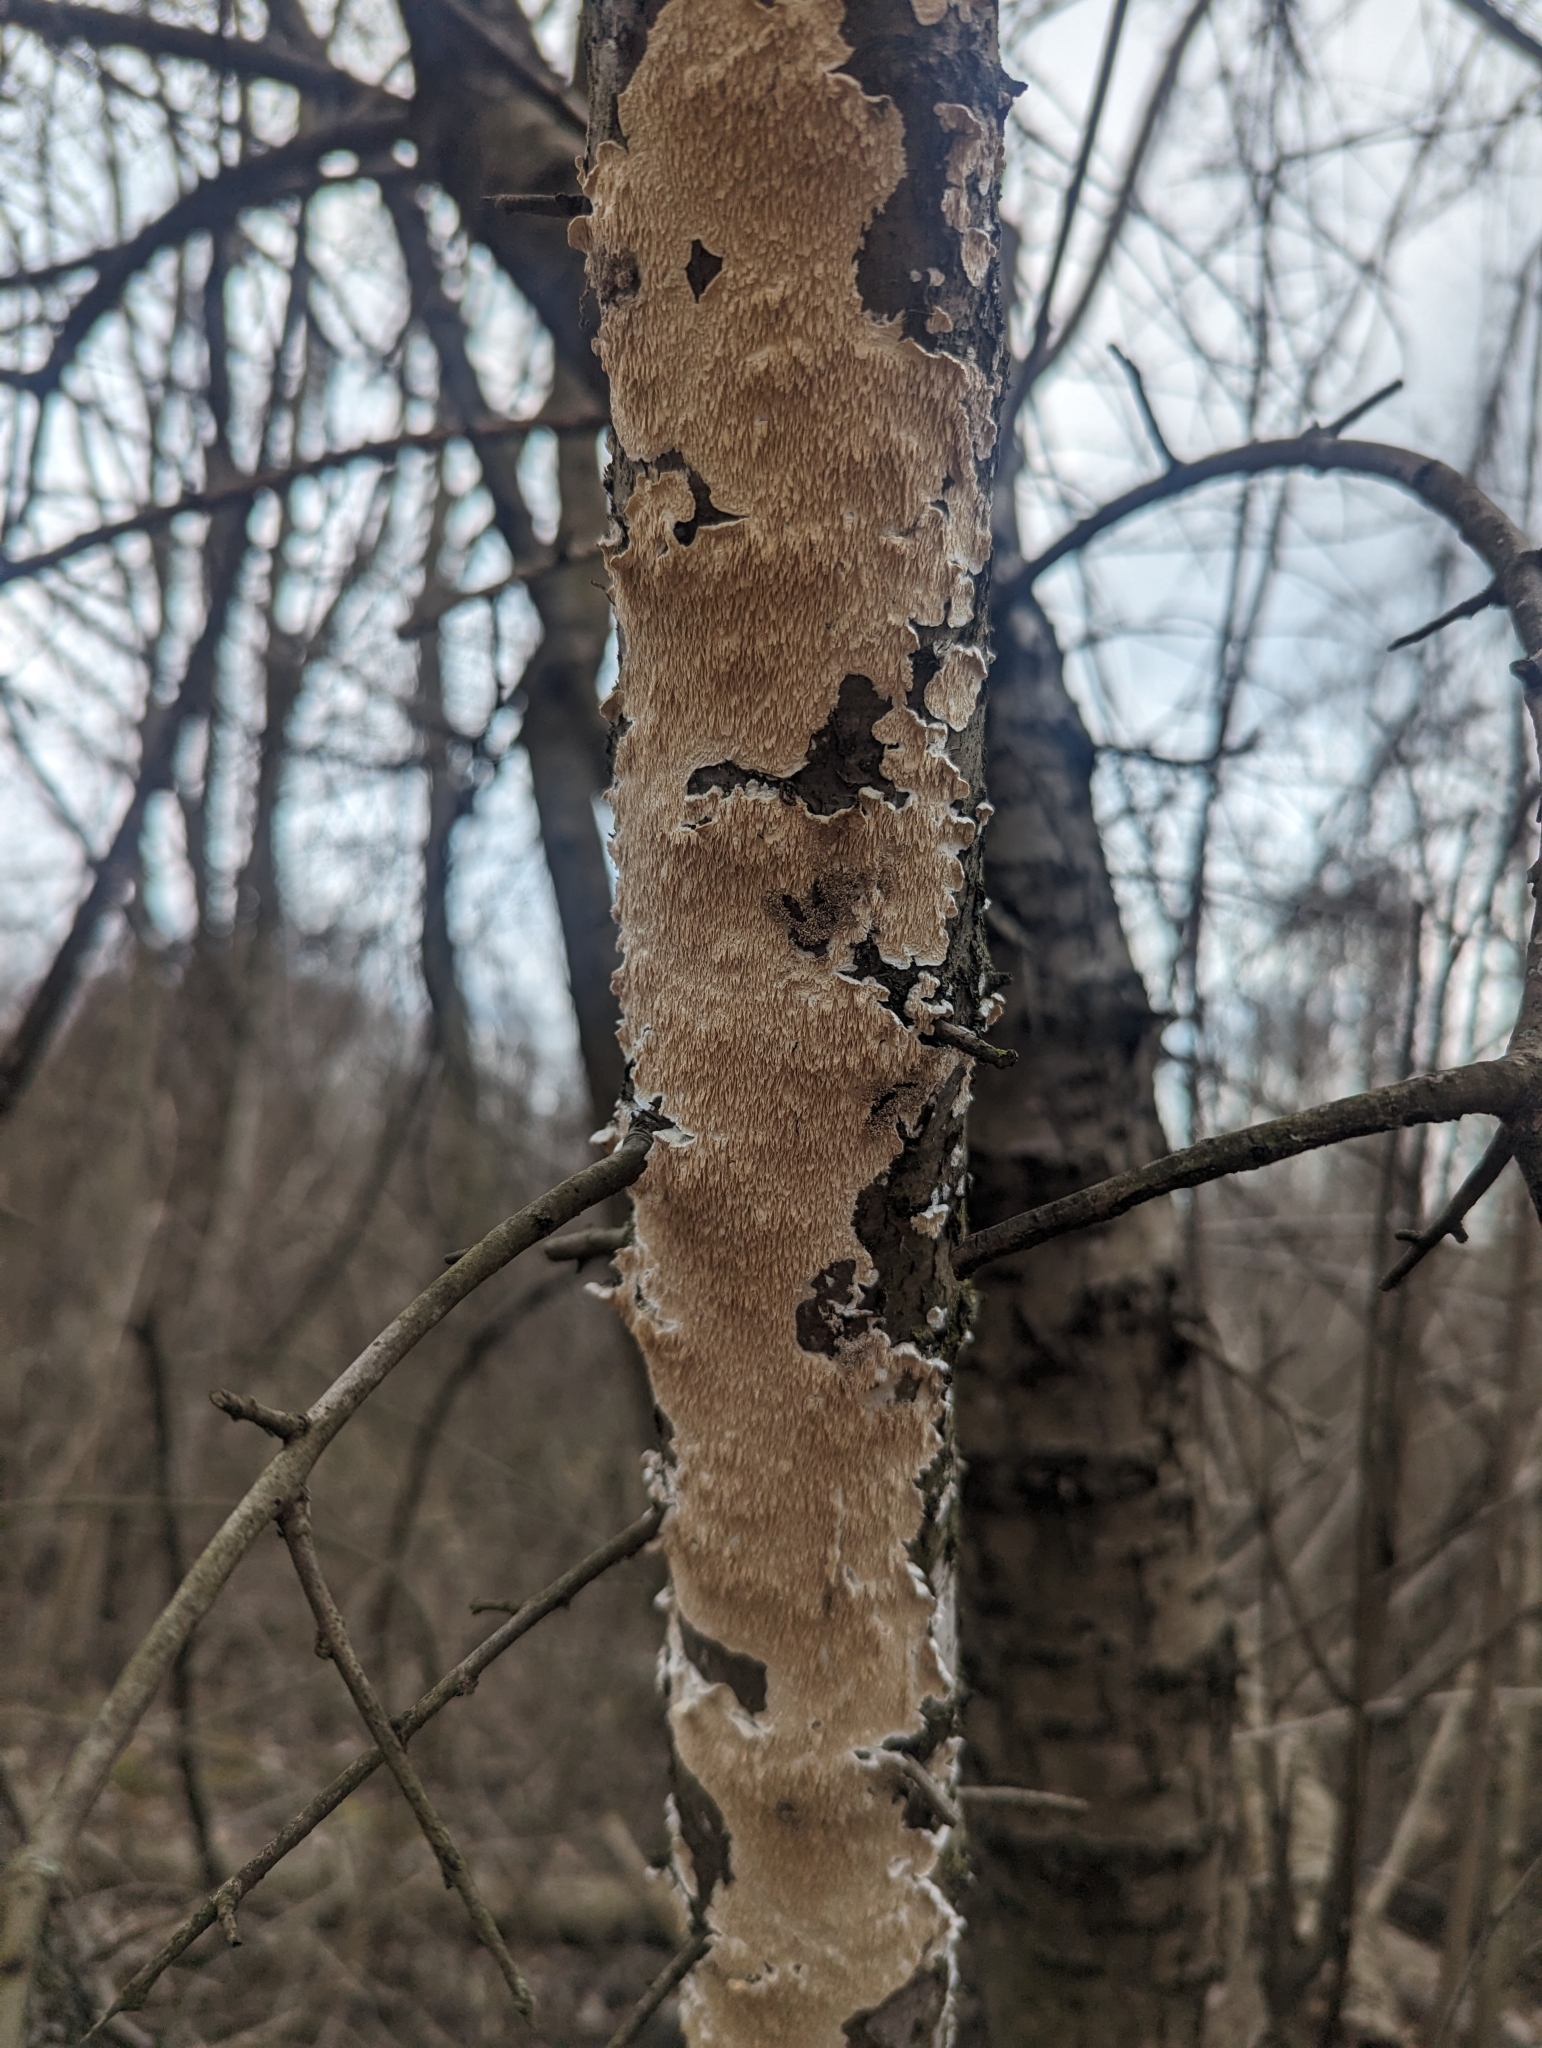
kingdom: Fungi
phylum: Basidiomycota
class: Agaricomycetes
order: Polyporales
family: Irpicaceae
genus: Irpex
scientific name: Irpex lacteus
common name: Milk-white toothed polypore
